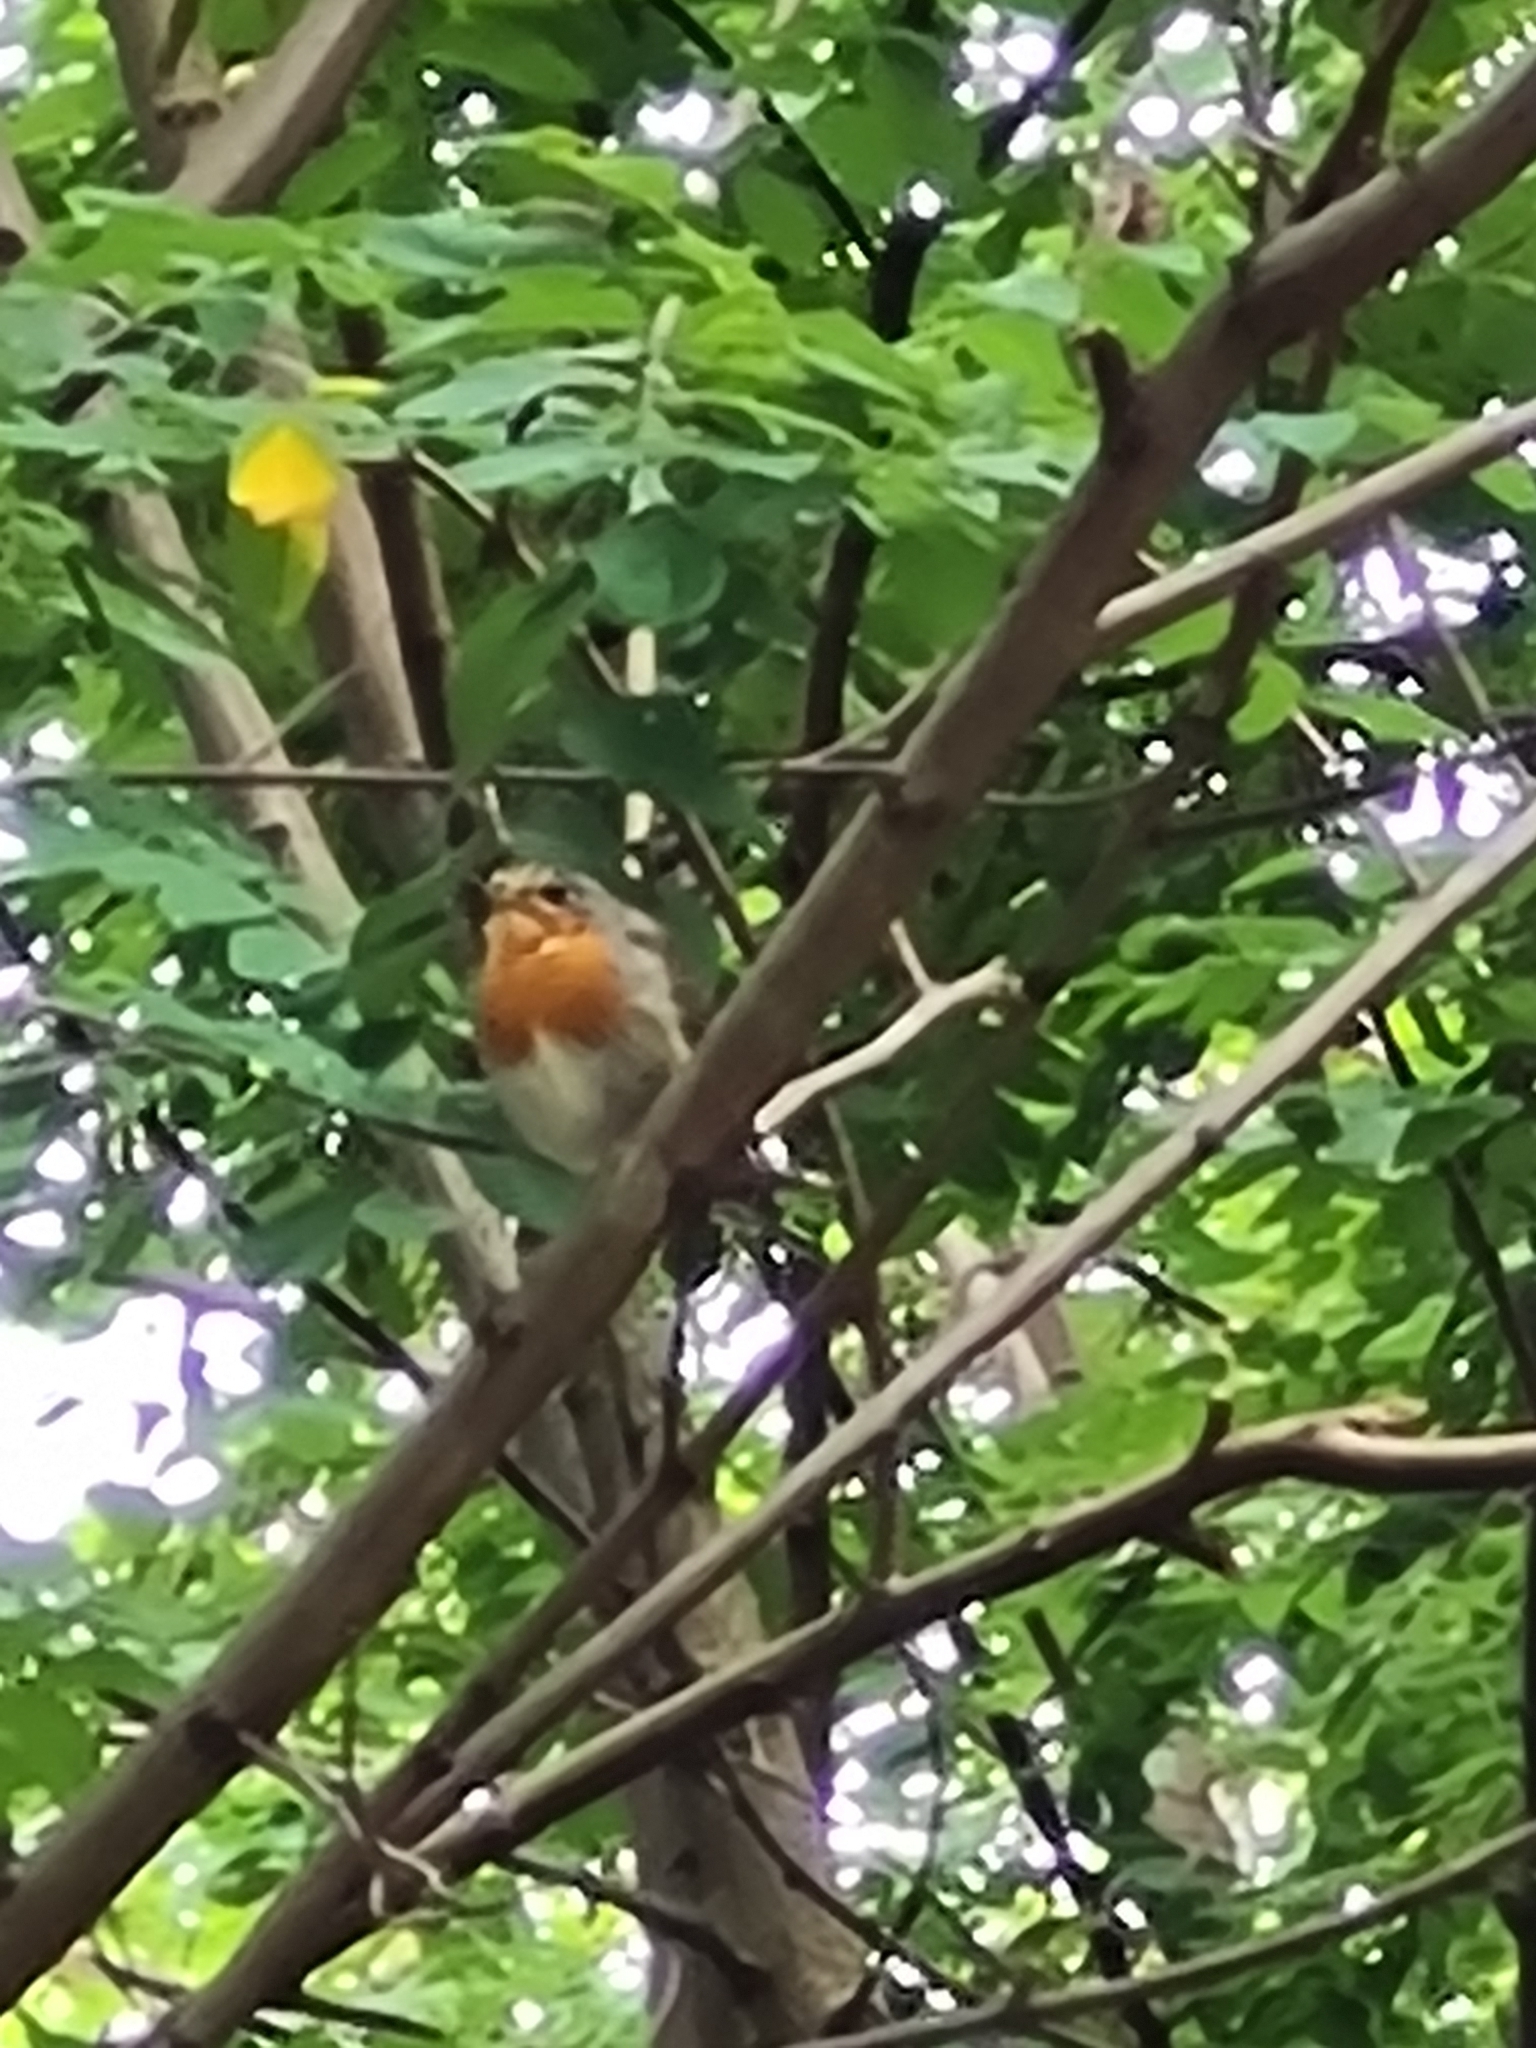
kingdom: Animalia
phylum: Chordata
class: Aves
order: Passeriformes
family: Muscicapidae
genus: Erithacus
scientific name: Erithacus rubecula
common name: European robin
